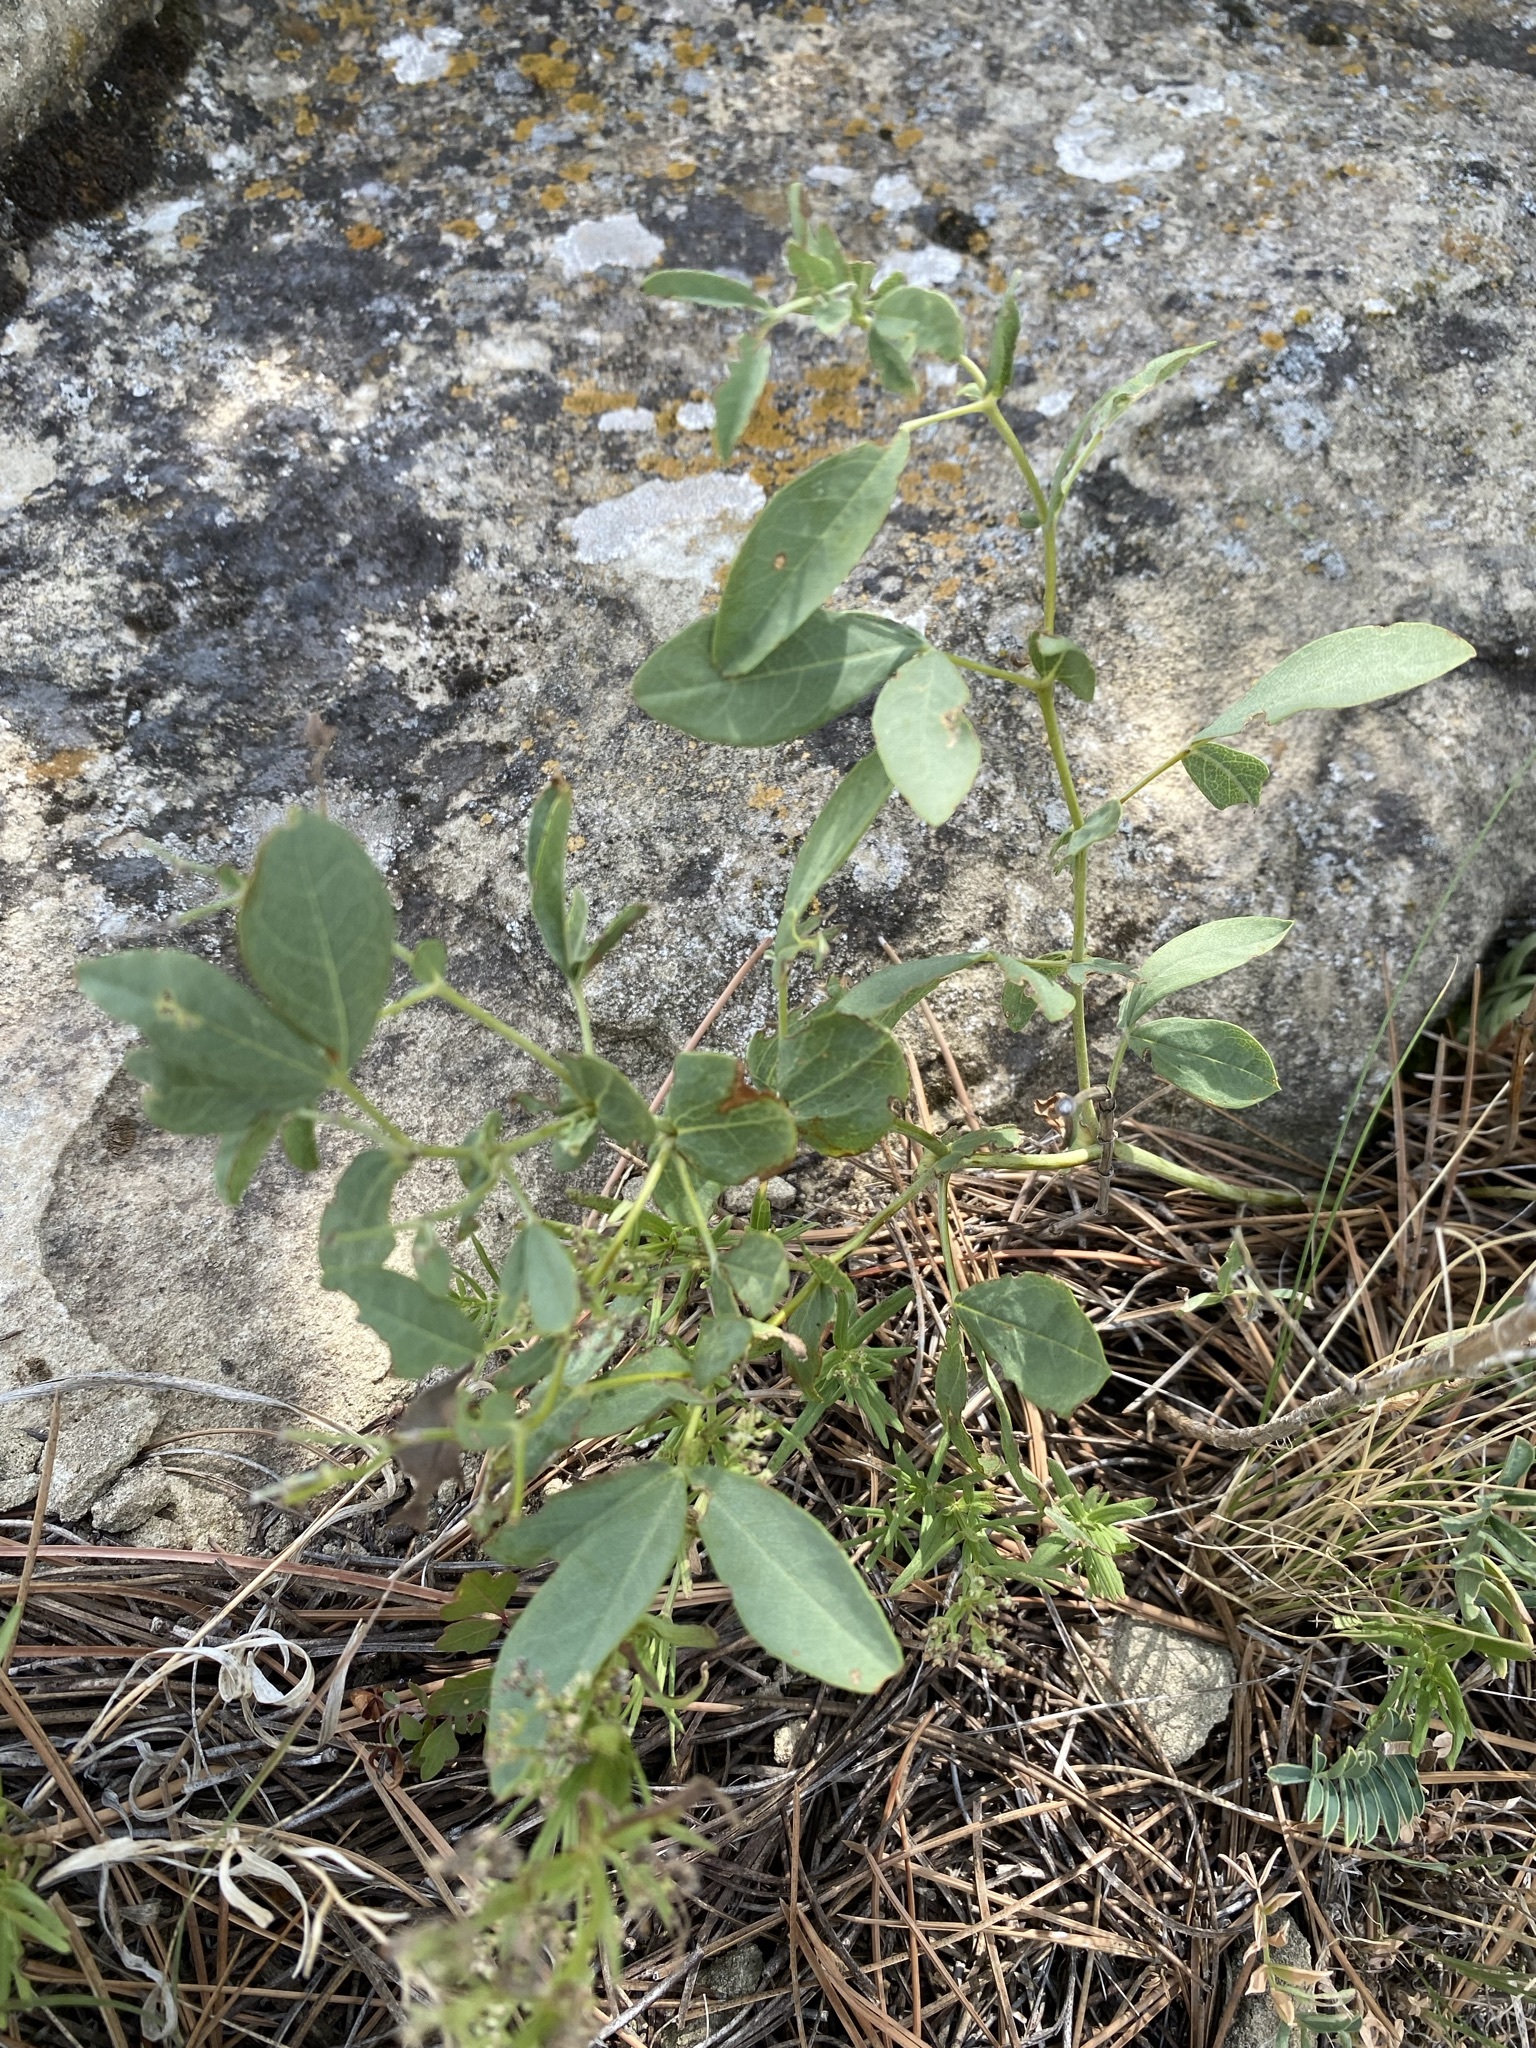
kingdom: Plantae
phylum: Tracheophyta
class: Magnoliopsida
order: Fabales
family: Fabaceae
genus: Thermopsis
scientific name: Thermopsis rhombifolia
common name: Circle-pod-pea
